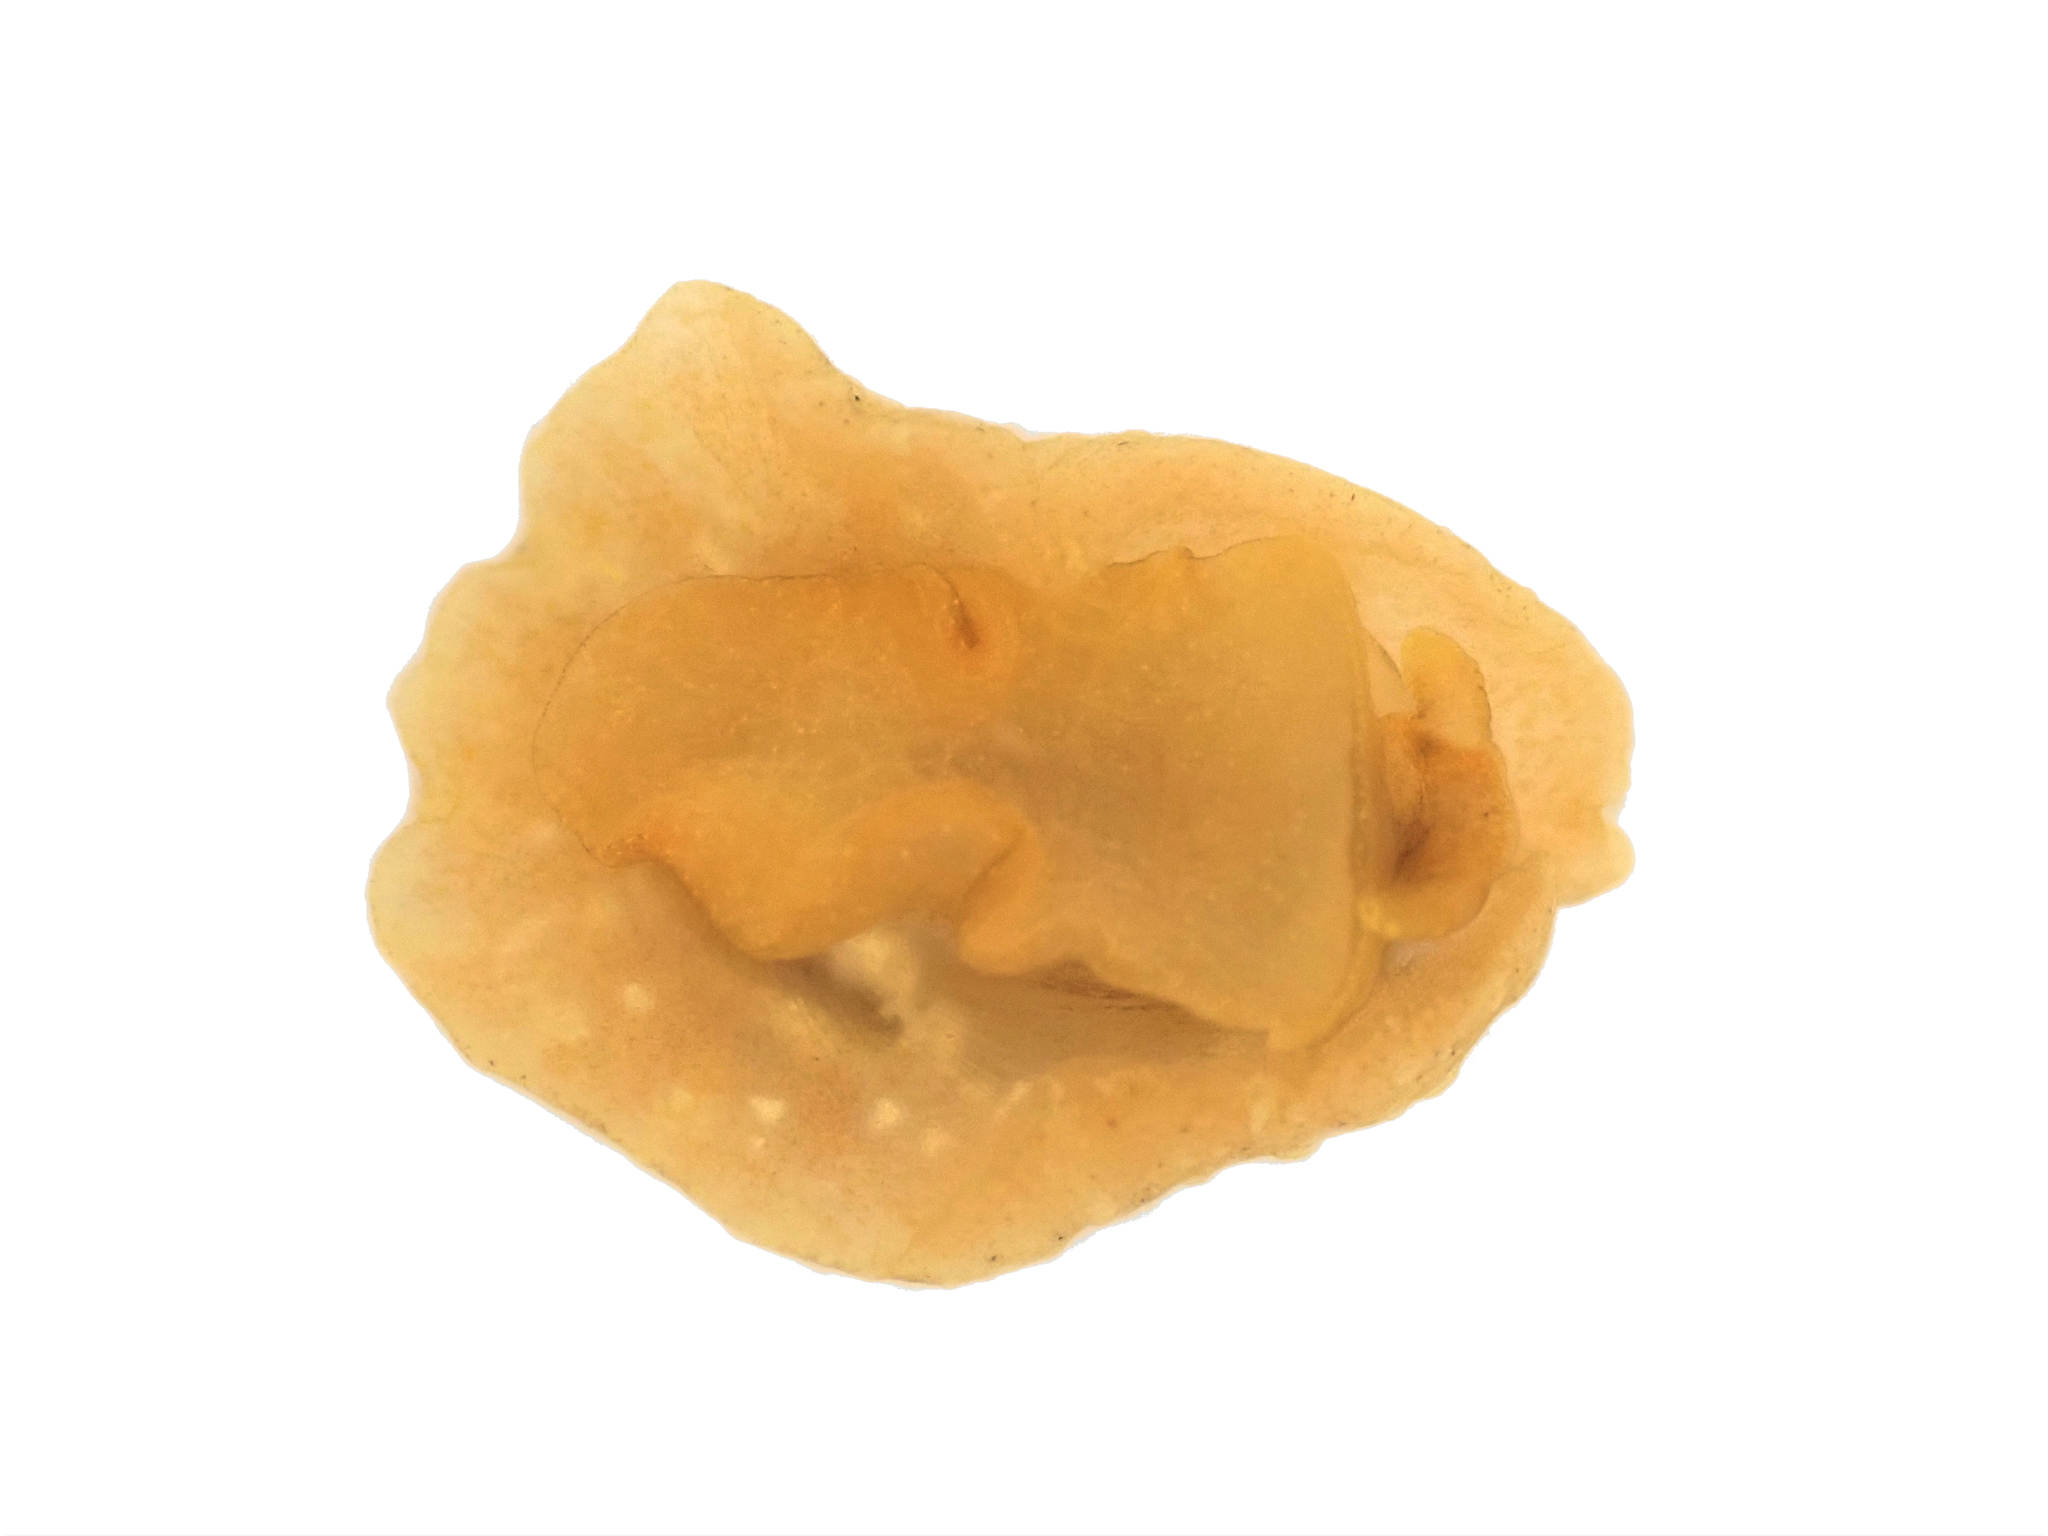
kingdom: Animalia
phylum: Mollusca
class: Gastropoda
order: Littorinimorpha
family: Velutinidae
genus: Lamellaria
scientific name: Lamellaria ophione
